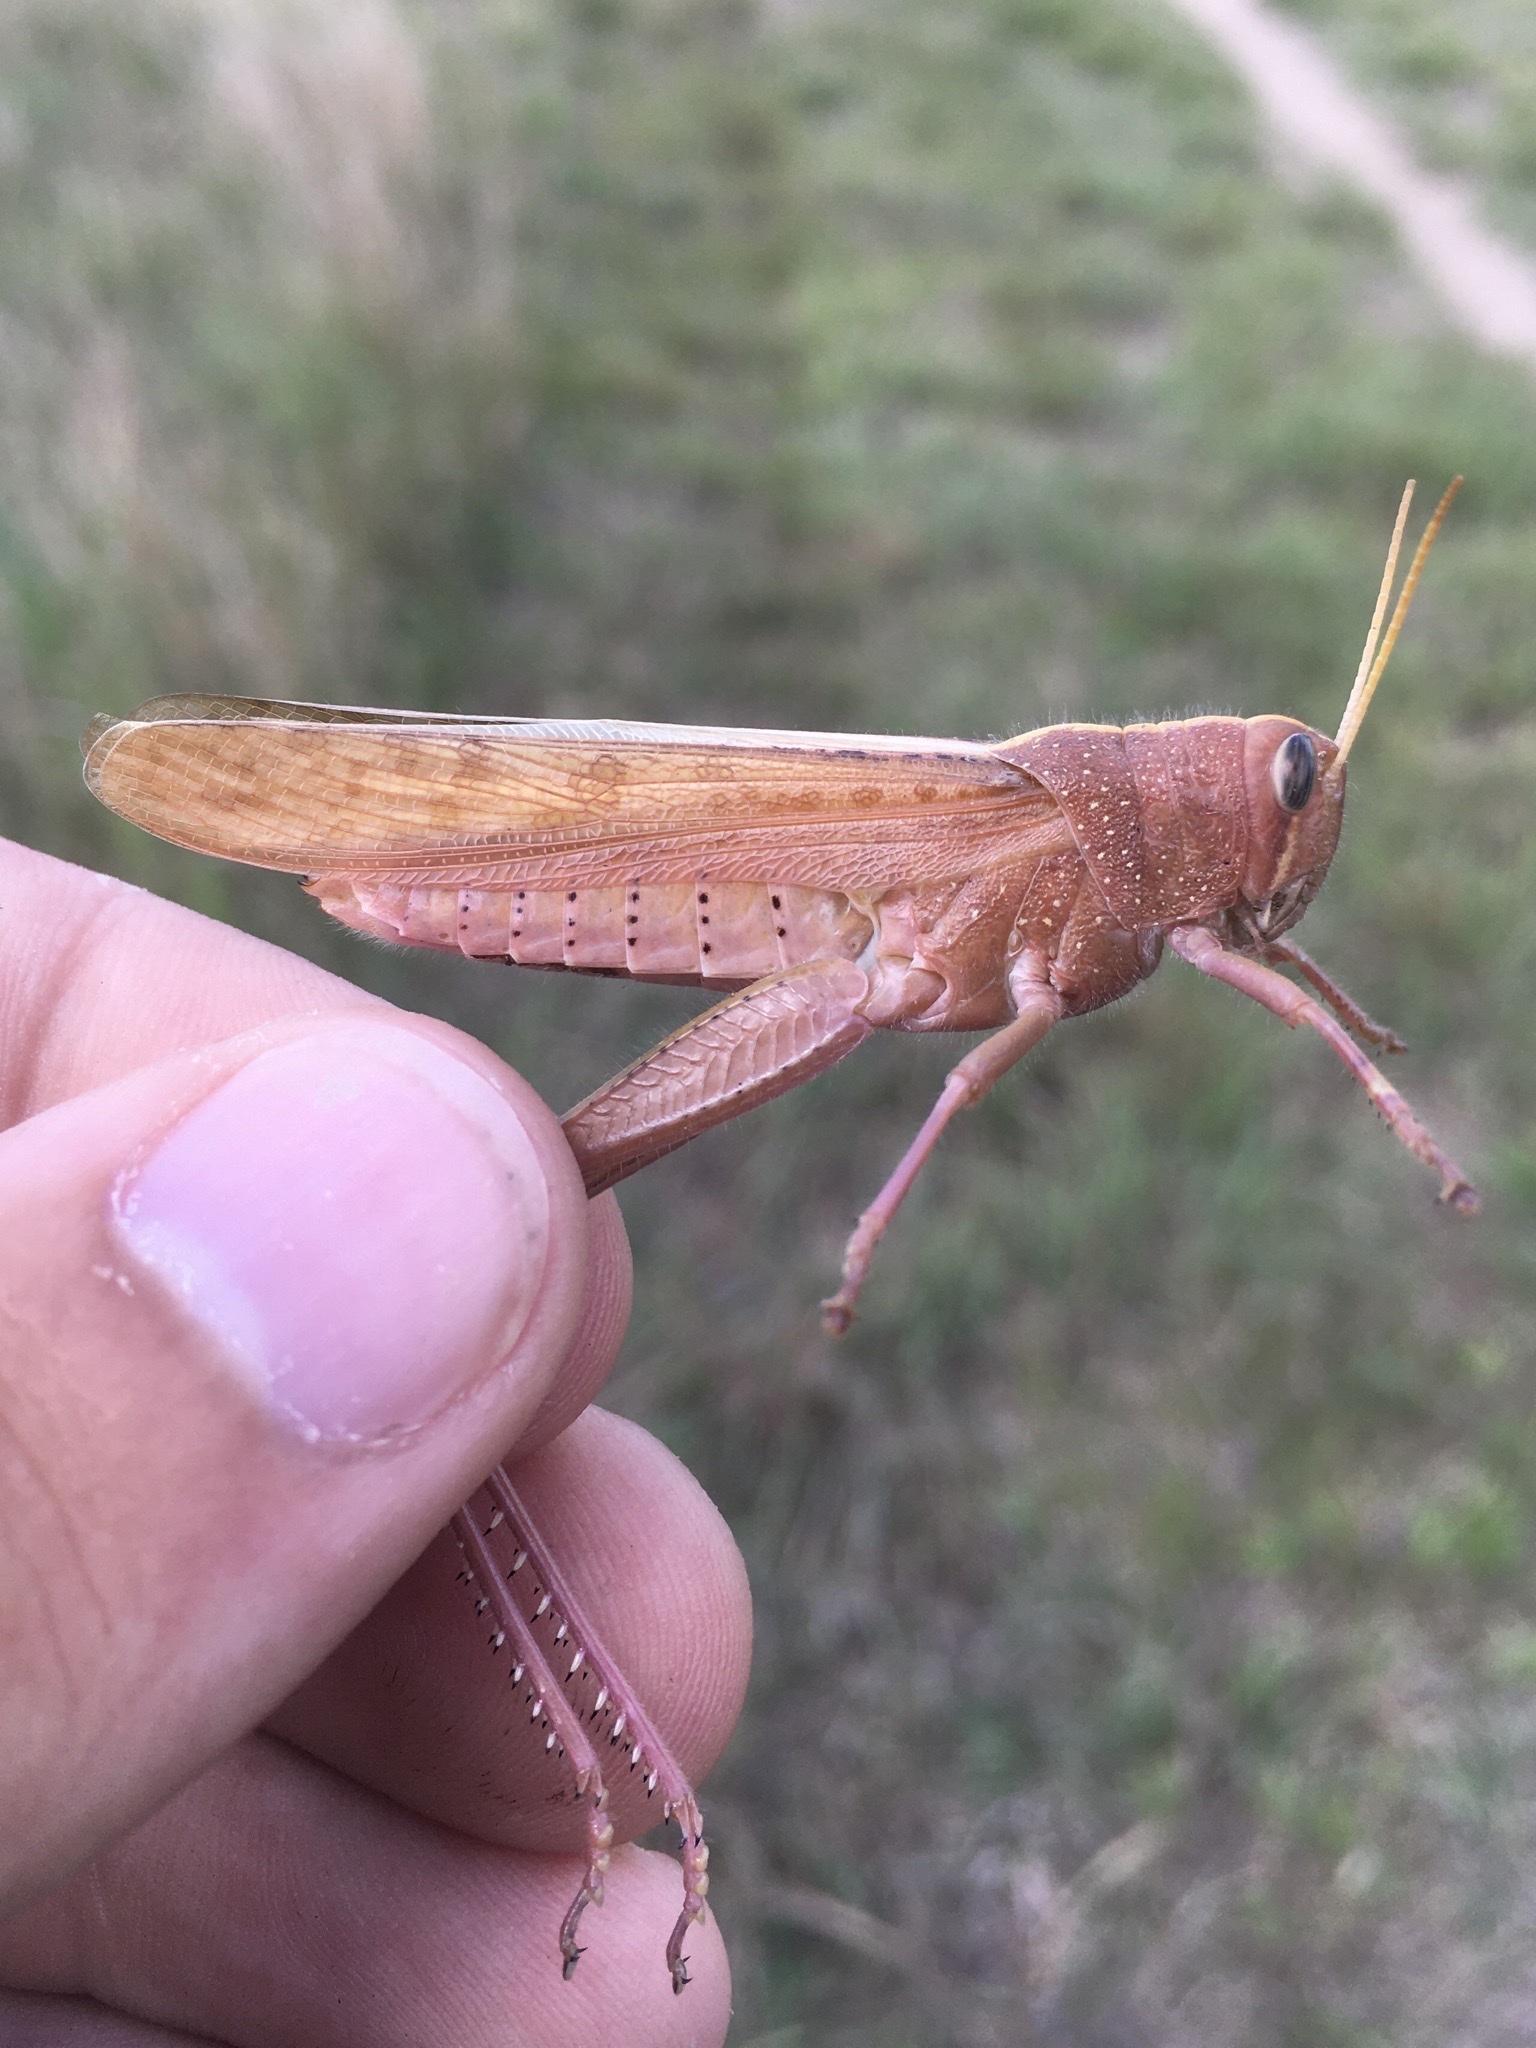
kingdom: Animalia
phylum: Arthropoda
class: Insecta
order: Orthoptera
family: Acrididae
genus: Schistocerca
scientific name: Schistocerca lineata
